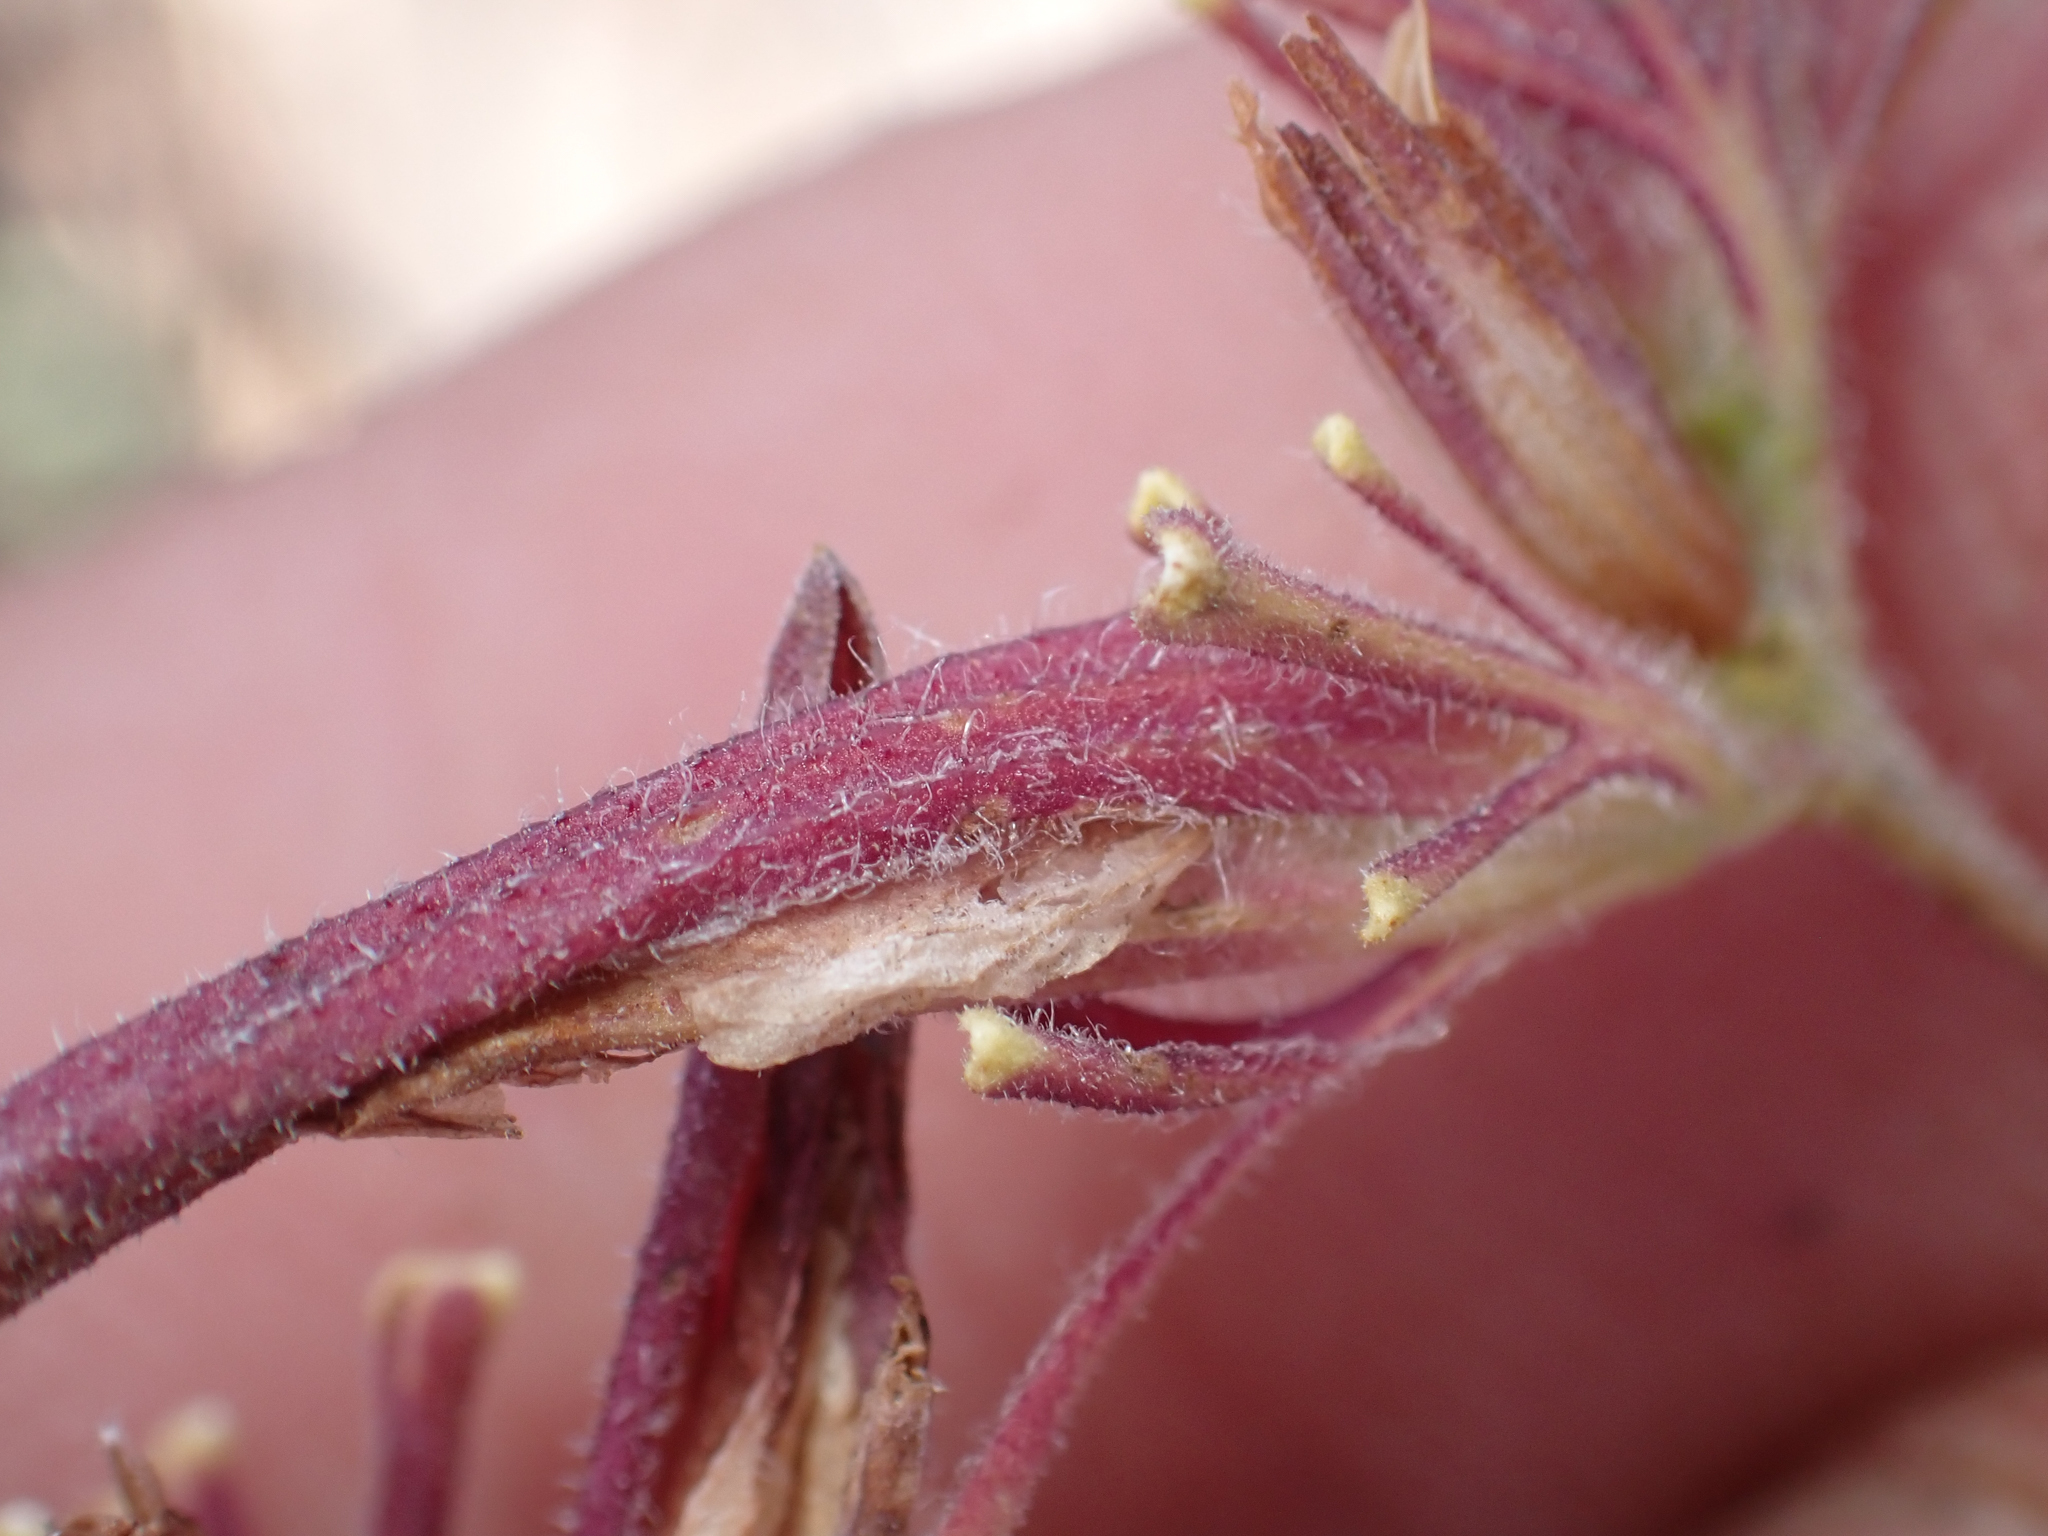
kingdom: Plantae
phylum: Tracheophyta
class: Magnoliopsida
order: Lamiales
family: Orobanchaceae
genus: Cordylanthus
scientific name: Cordylanthus rigidus
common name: Stiff-branch bird's-beak
